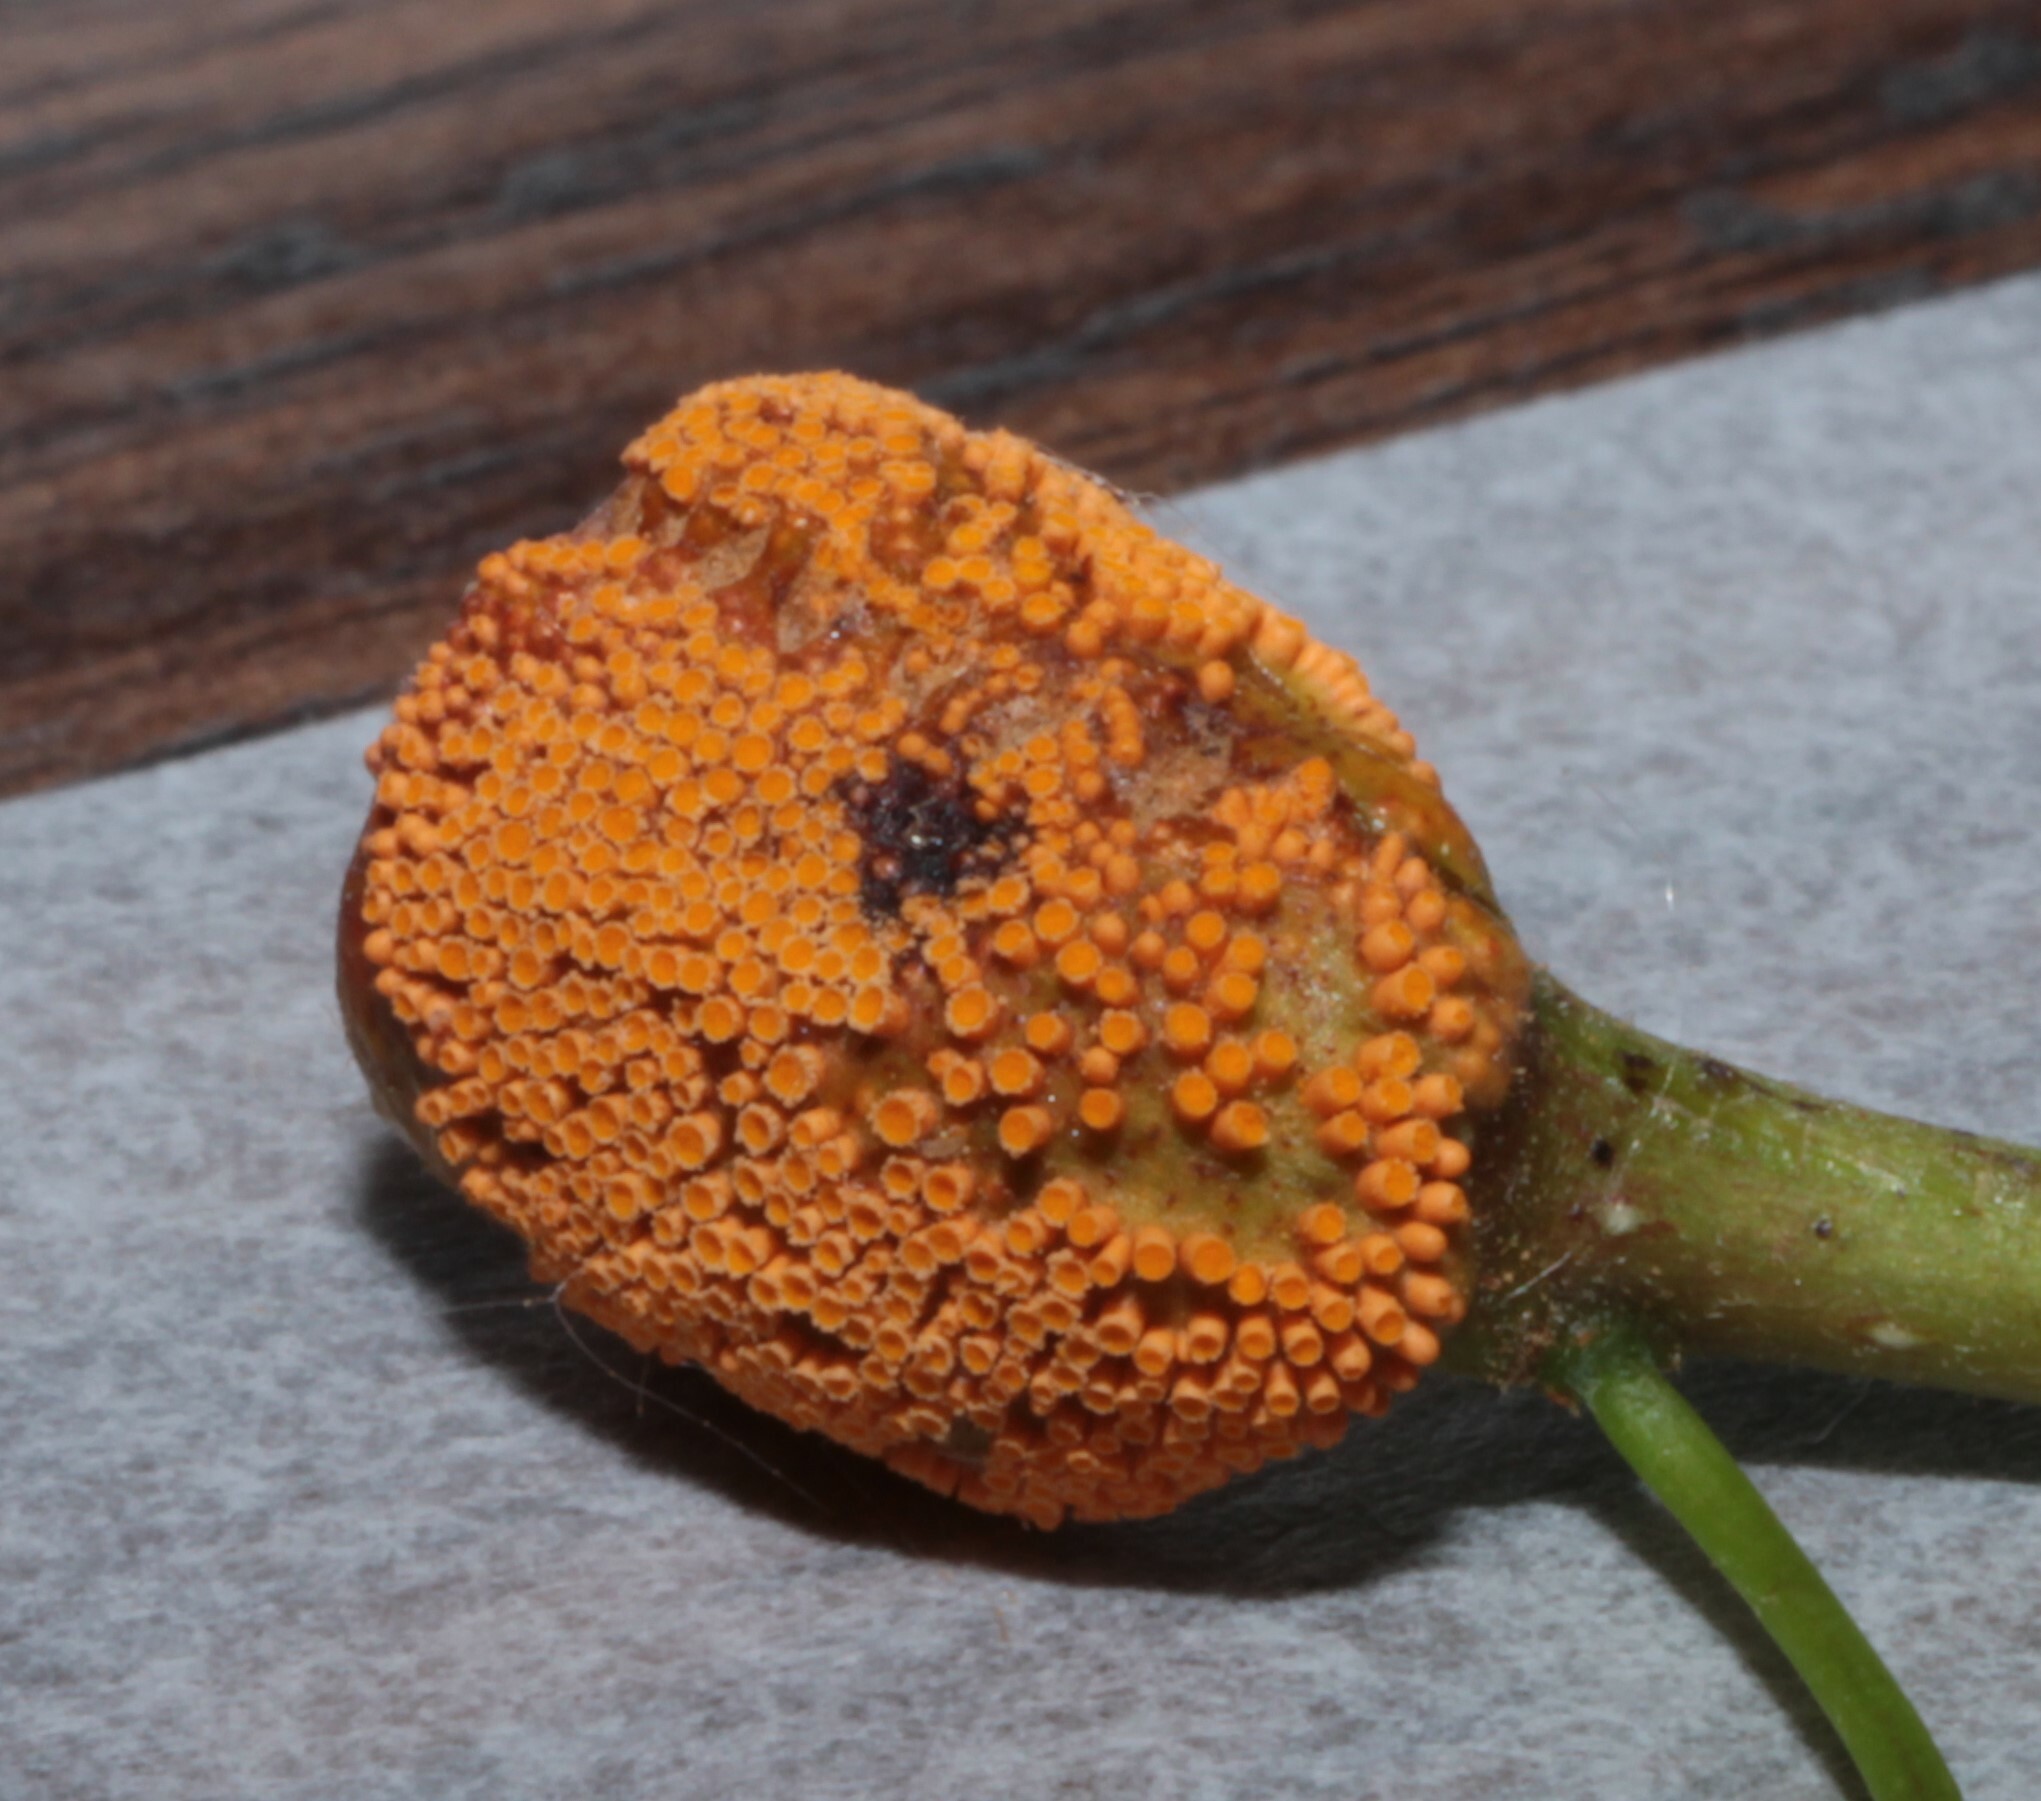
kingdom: Fungi
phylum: Basidiomycota
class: Pucciniomycetes
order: Pucciniales
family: Pucciniaceae
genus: Puccinia
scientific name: Puccinia coronata
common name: Crown rust
